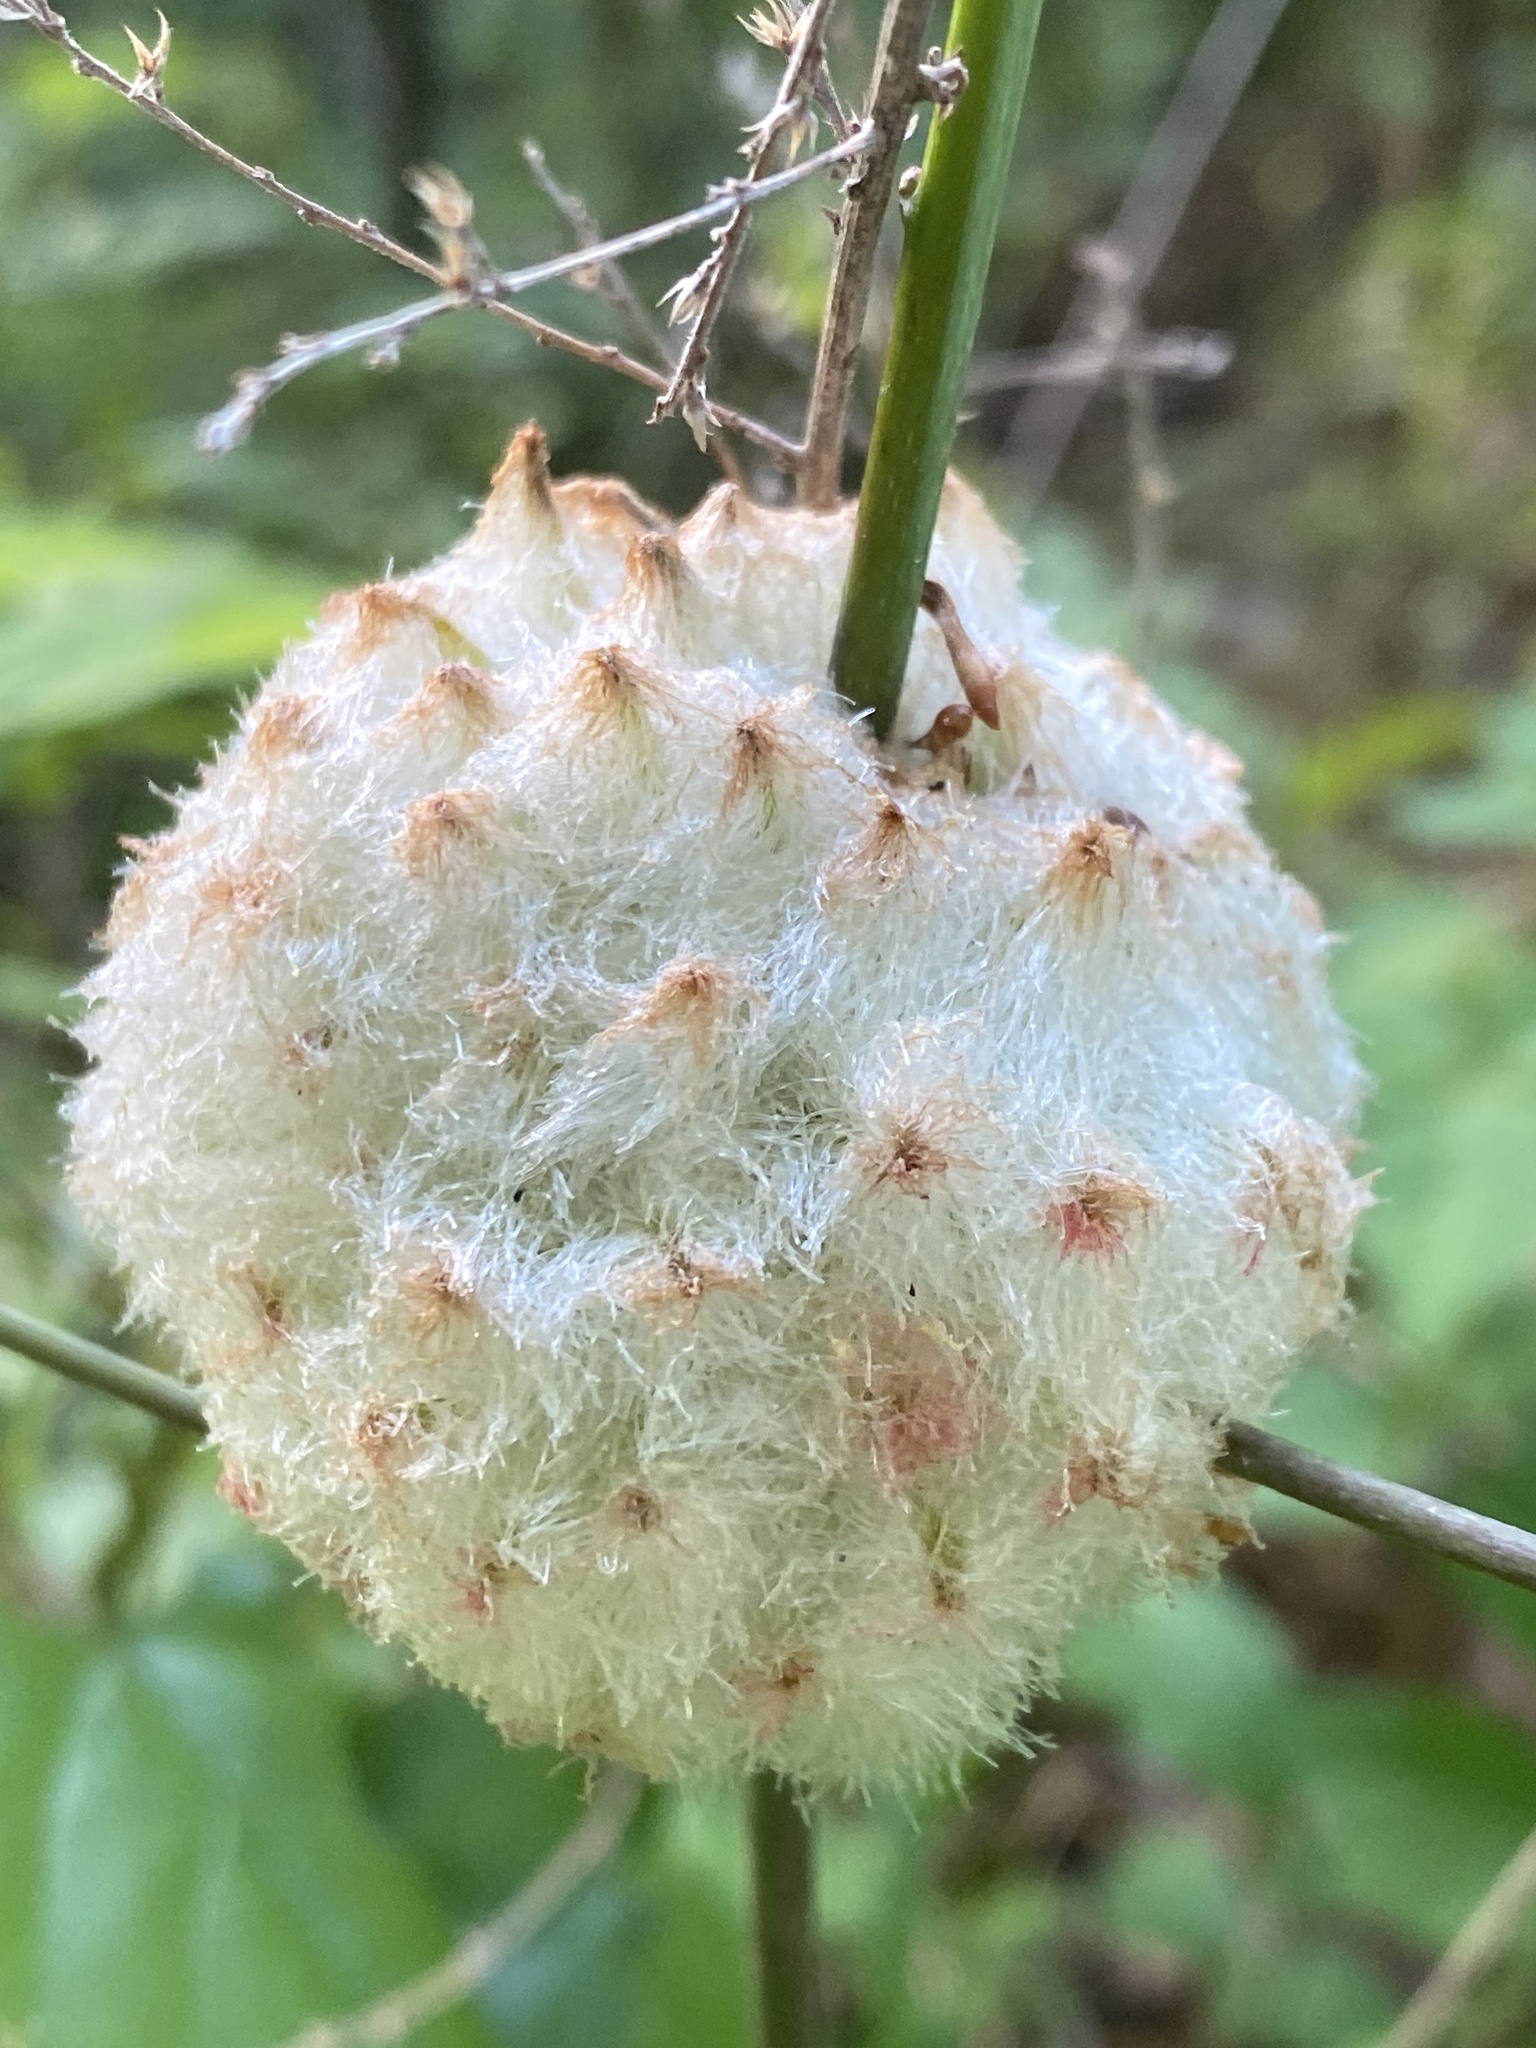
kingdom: Animalia
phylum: Arthropoda
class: Insecta
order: Hymenoptera
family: Cynipidae
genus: Callirhytis
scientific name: Callirhytis
